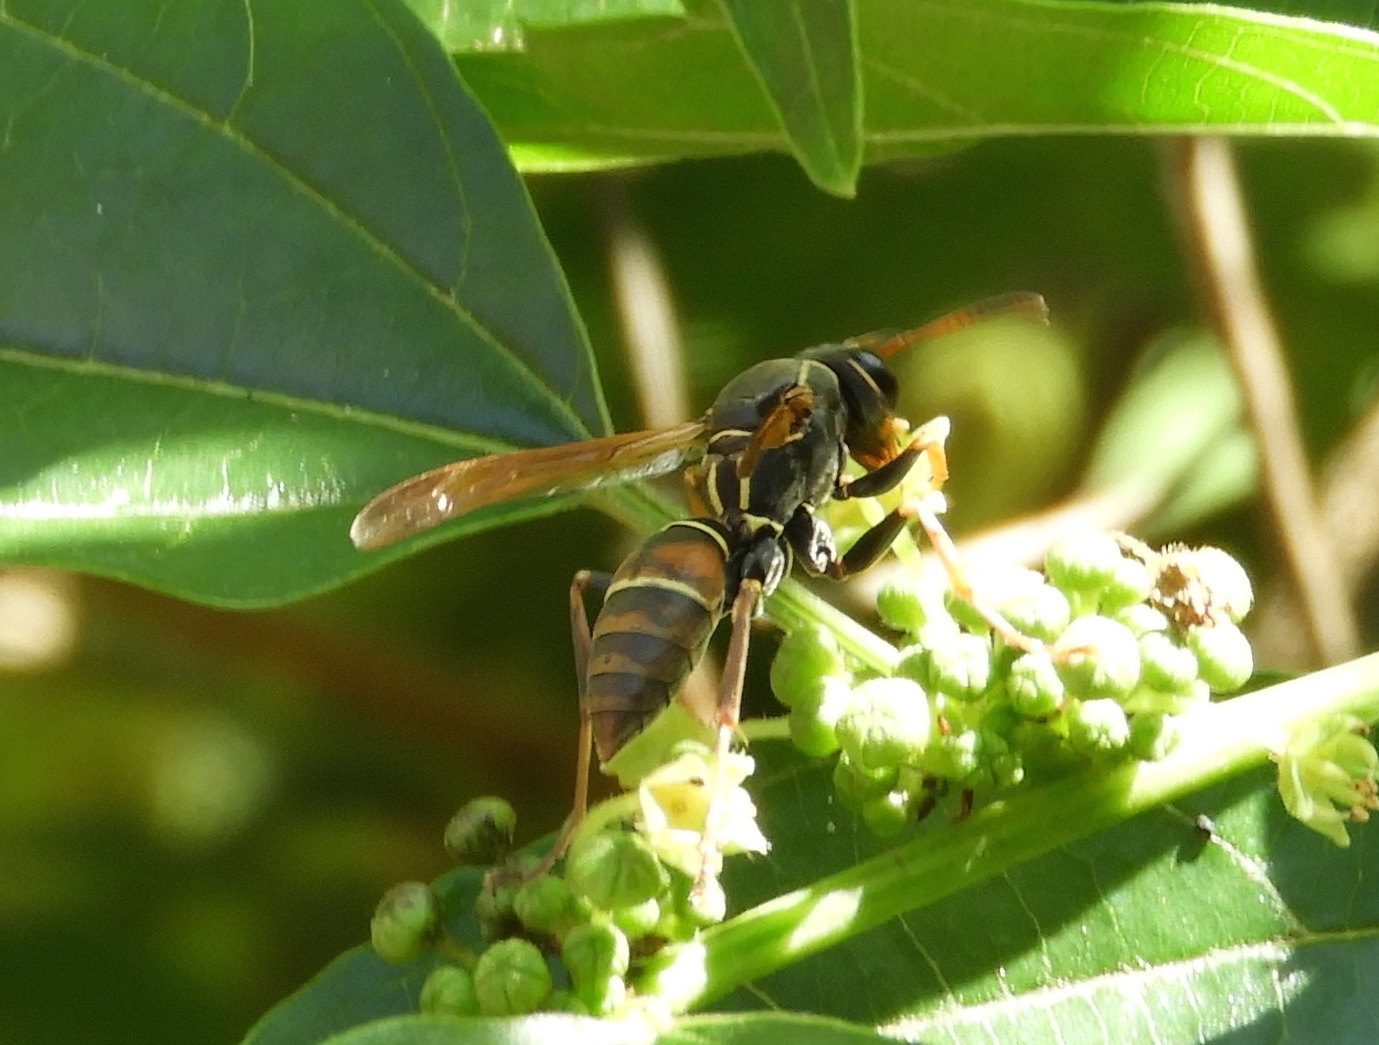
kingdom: Animalia
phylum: Arthropoda
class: Insecta
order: Hymenoptera
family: Eumenidae
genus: Polistes
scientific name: Polistes pacificus
